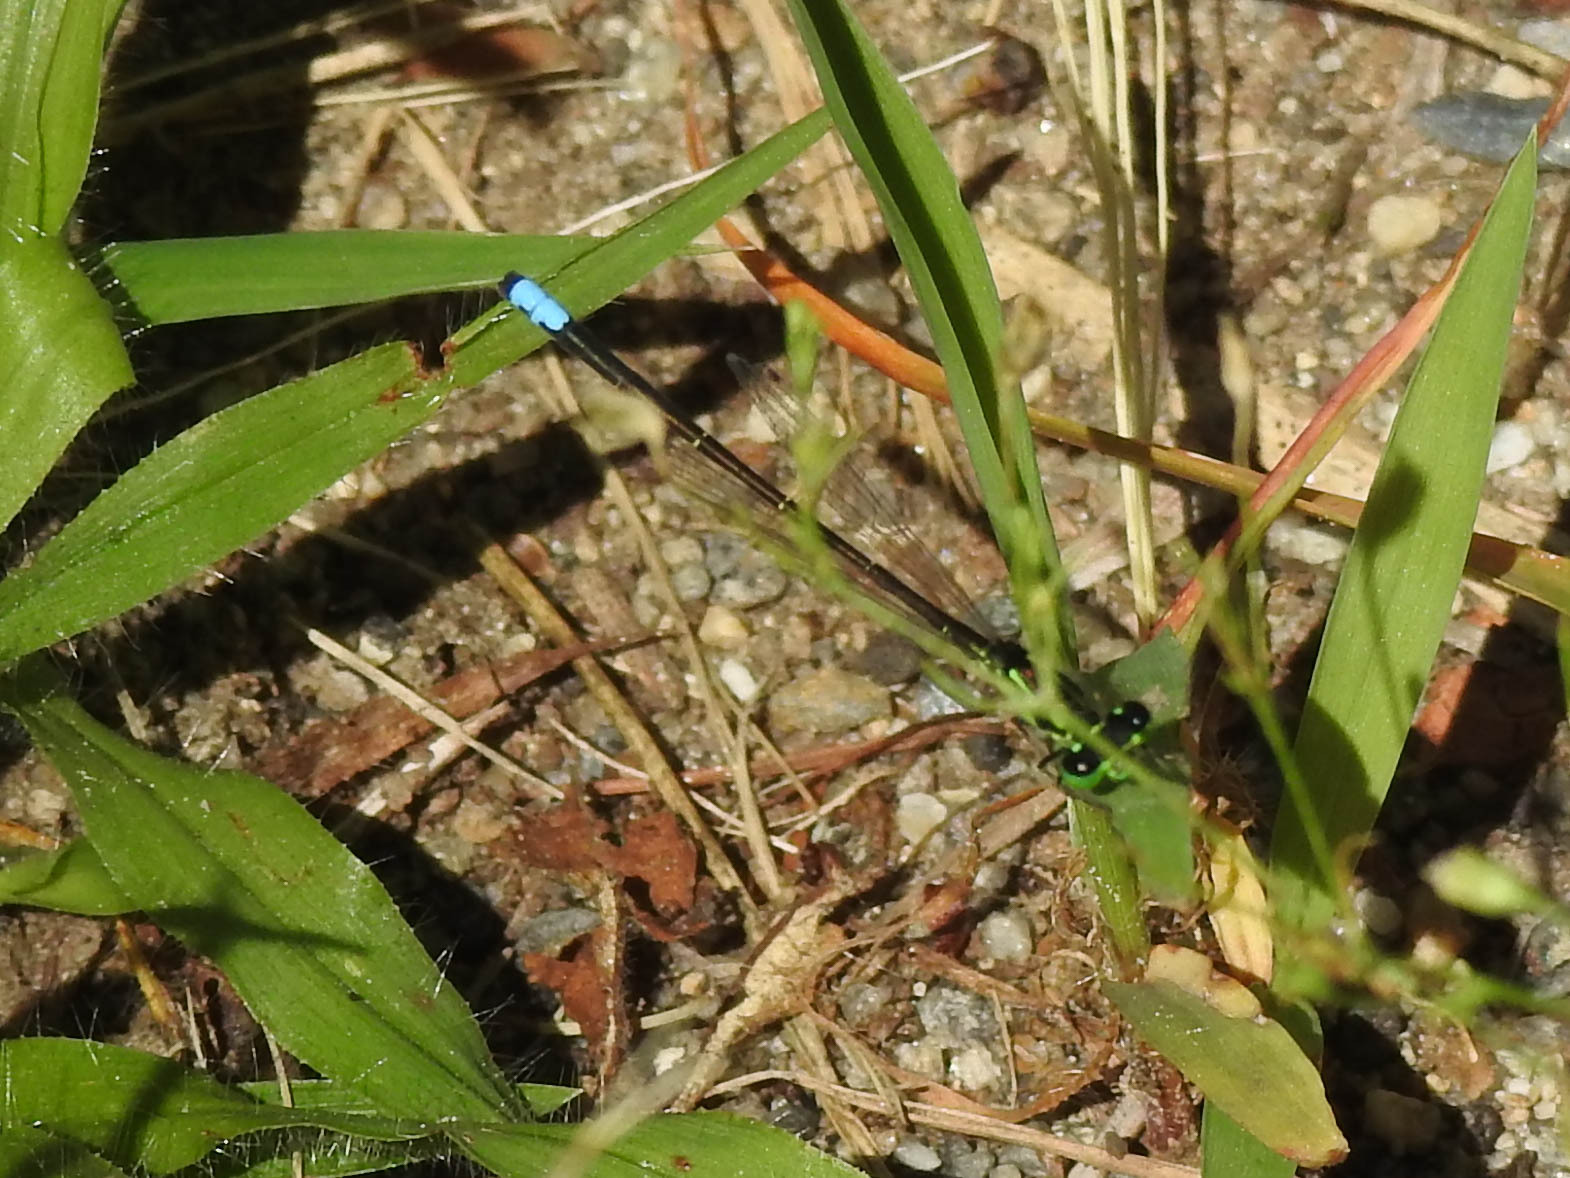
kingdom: Animalia
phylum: Arthropoda
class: Insecta
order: Odonata
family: Coenagrionidae
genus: Ischnura
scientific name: Ischnura verticalis
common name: Eastern forktail
